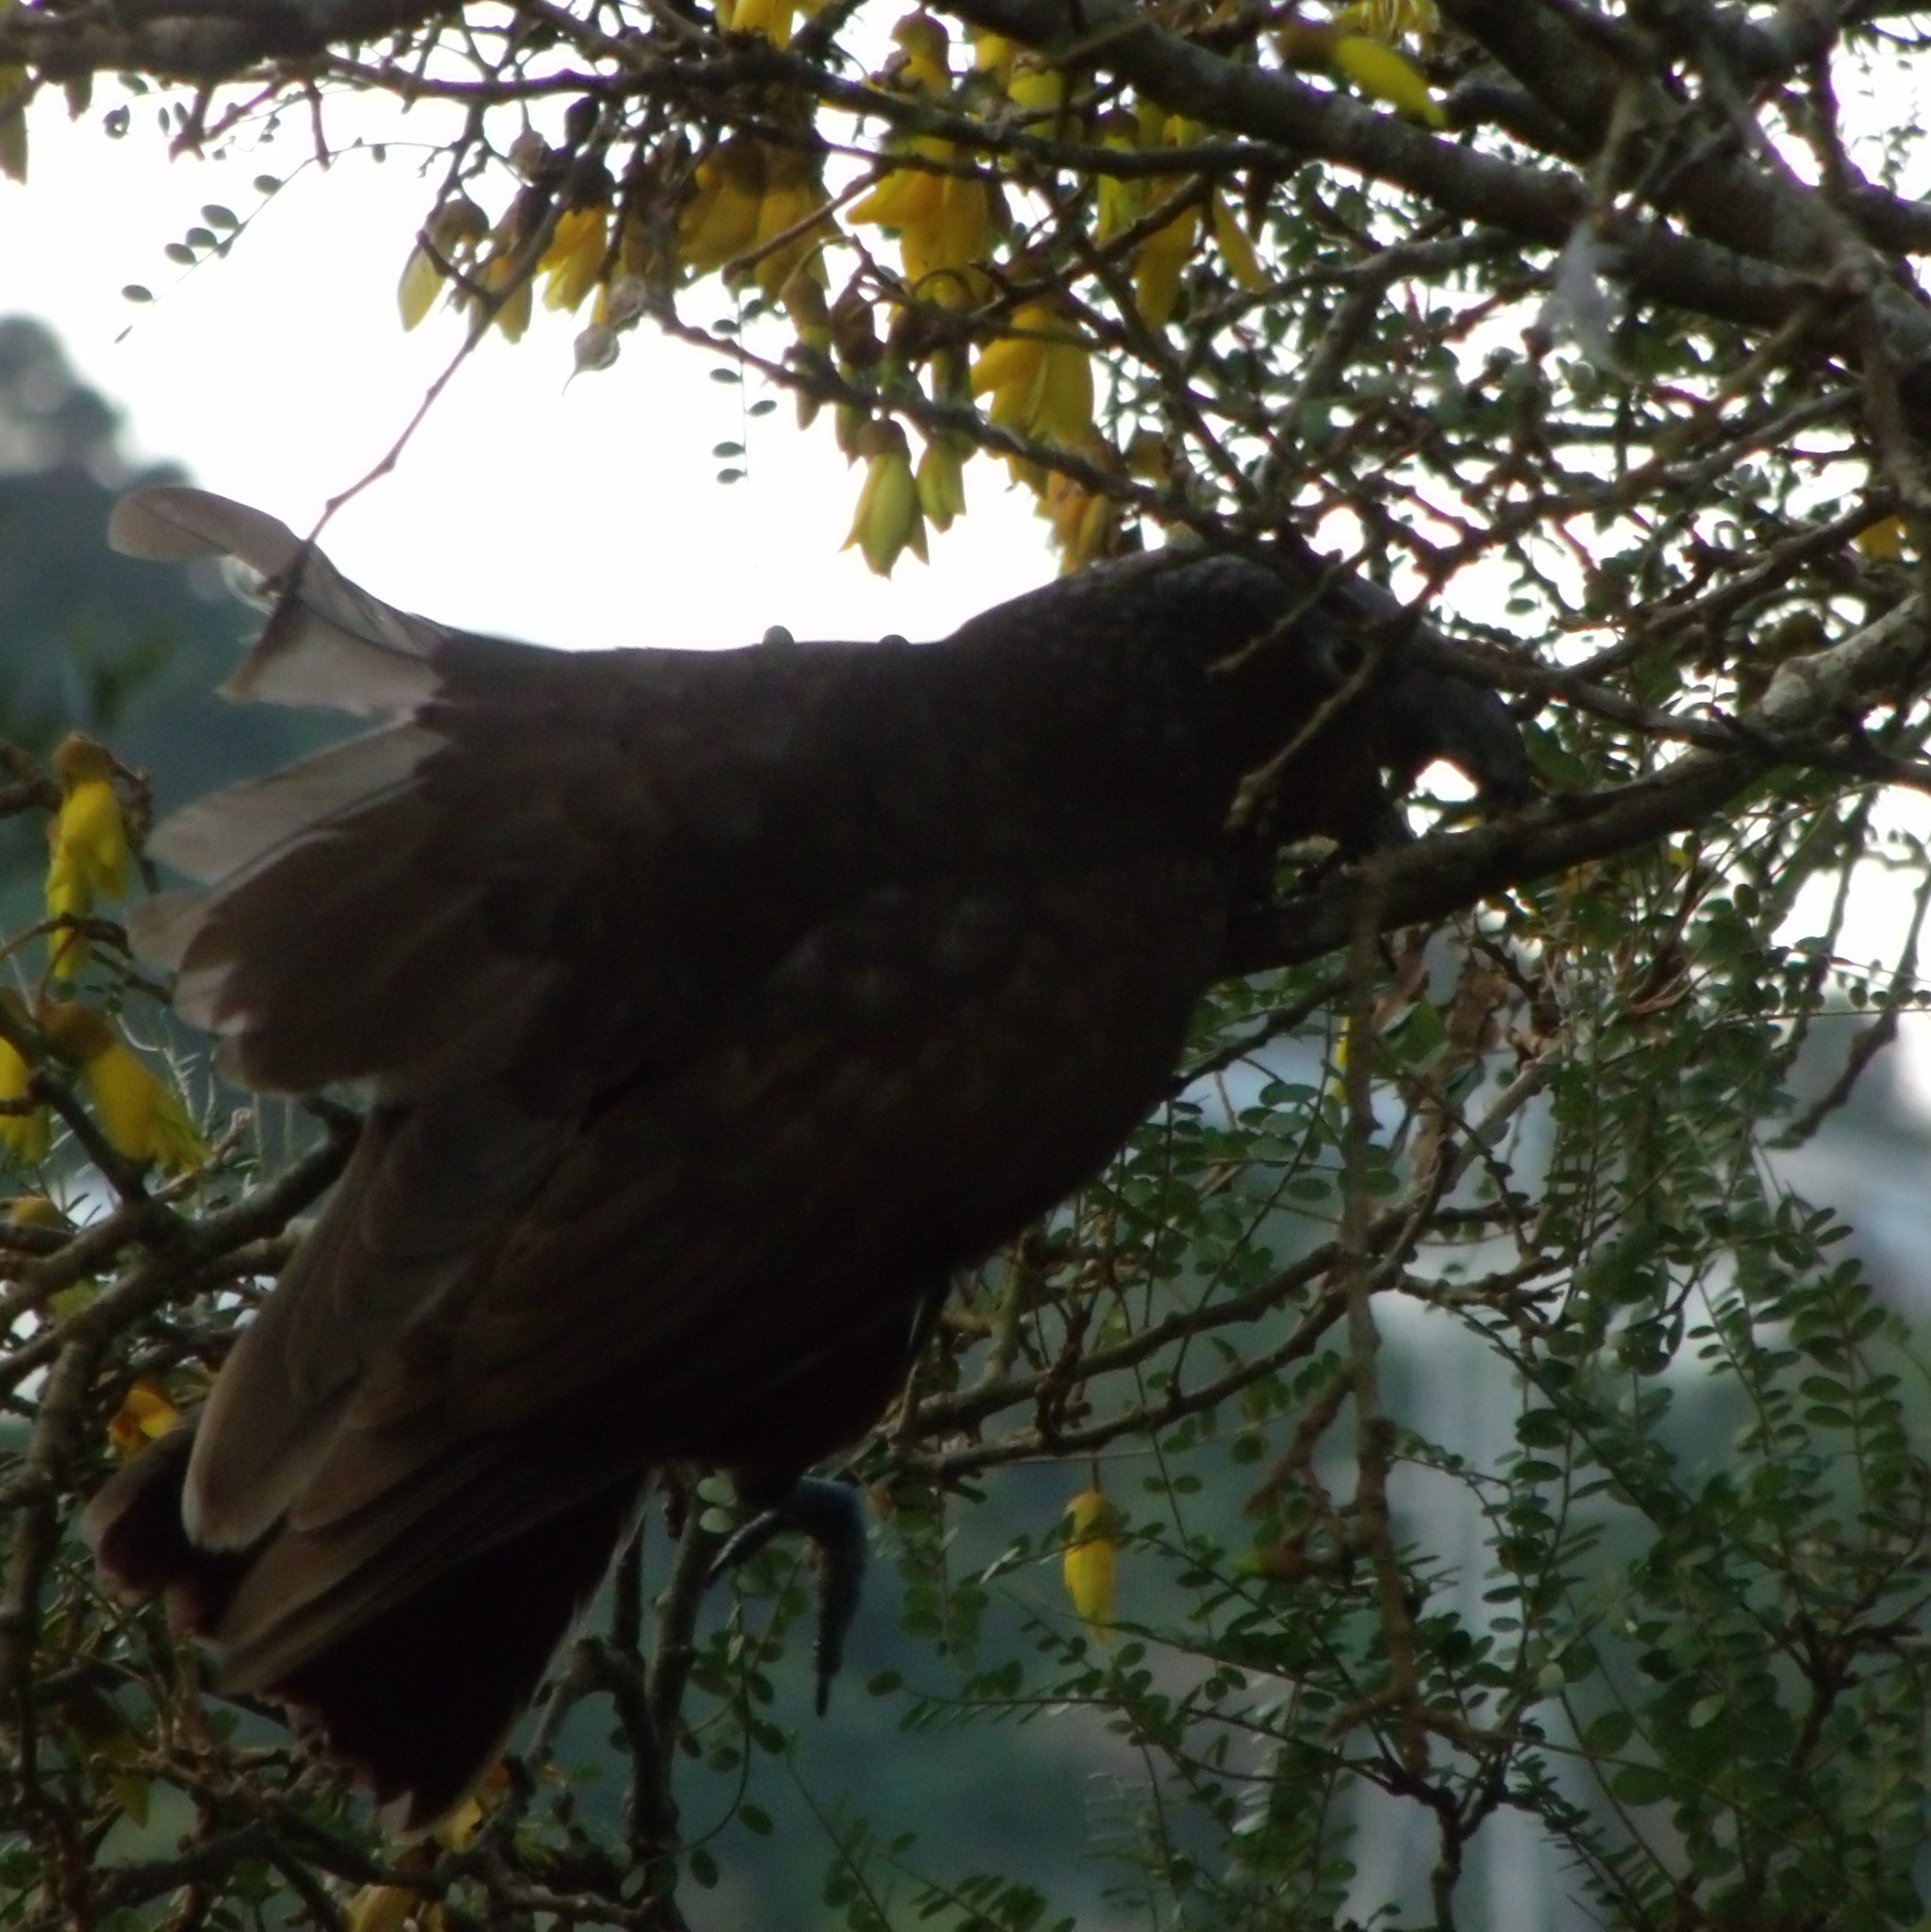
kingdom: Animalia
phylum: Chordata
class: Aves
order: Psittaciformes
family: Psittacidae
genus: Nestor
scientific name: Nestor meridionalis
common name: New zealand kaka
